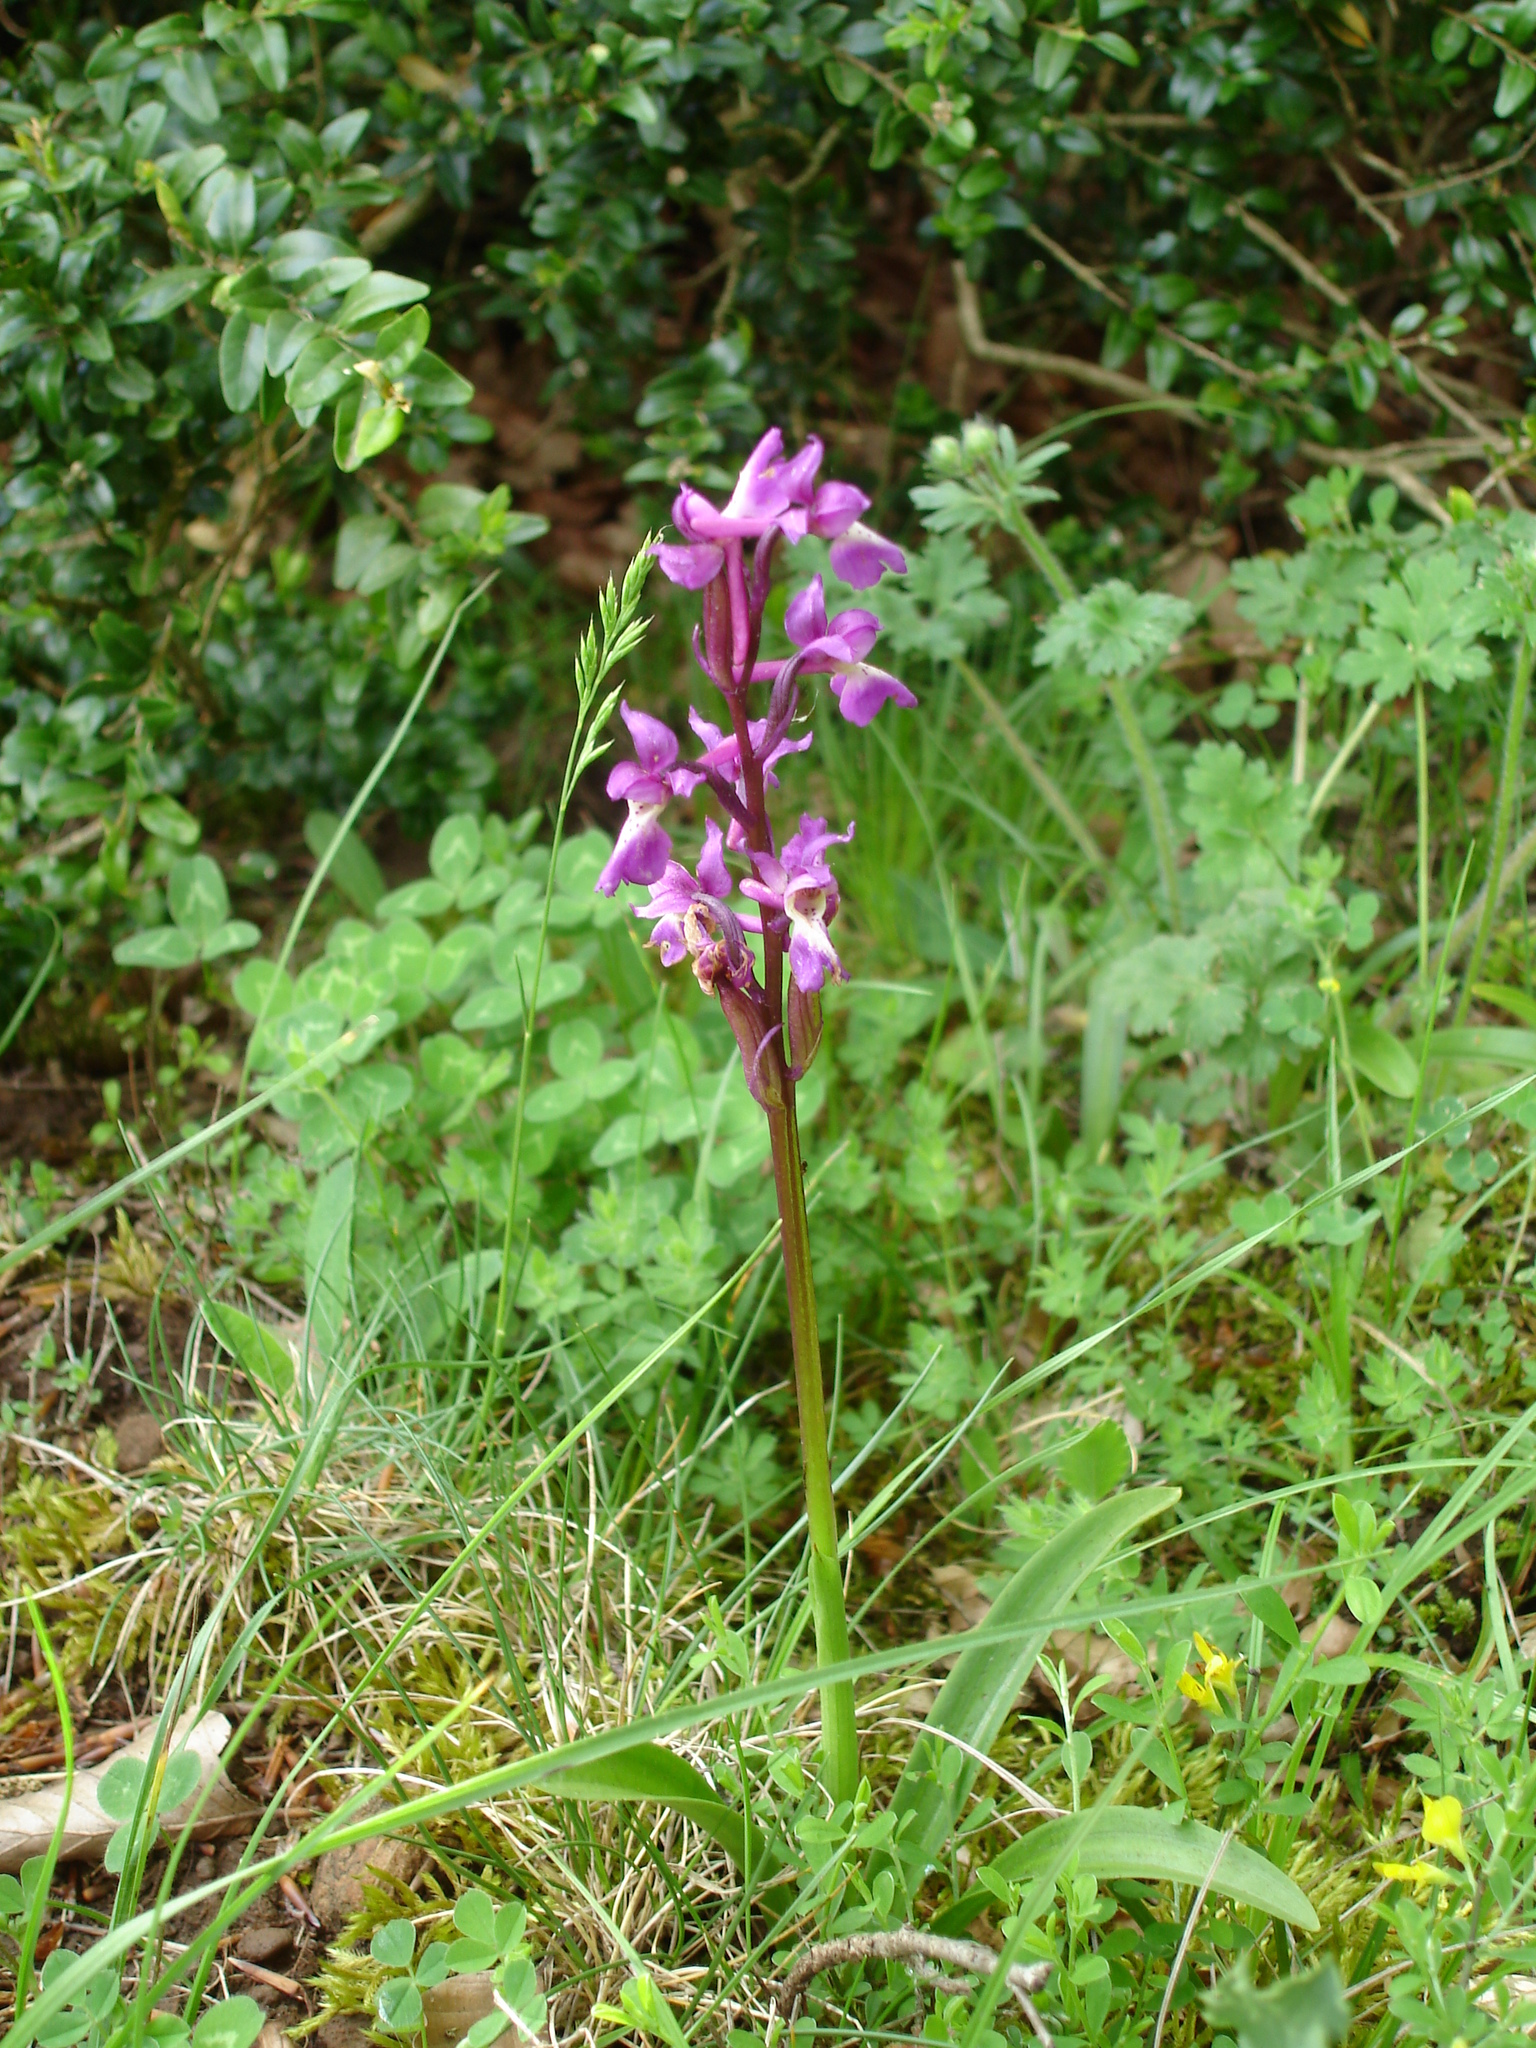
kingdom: Plantae
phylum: Tracheophyta
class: Liliopsida
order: Asparagales
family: Orchidaceae
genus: Orchis
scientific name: Orchis mascula
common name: Early-purple orchid
